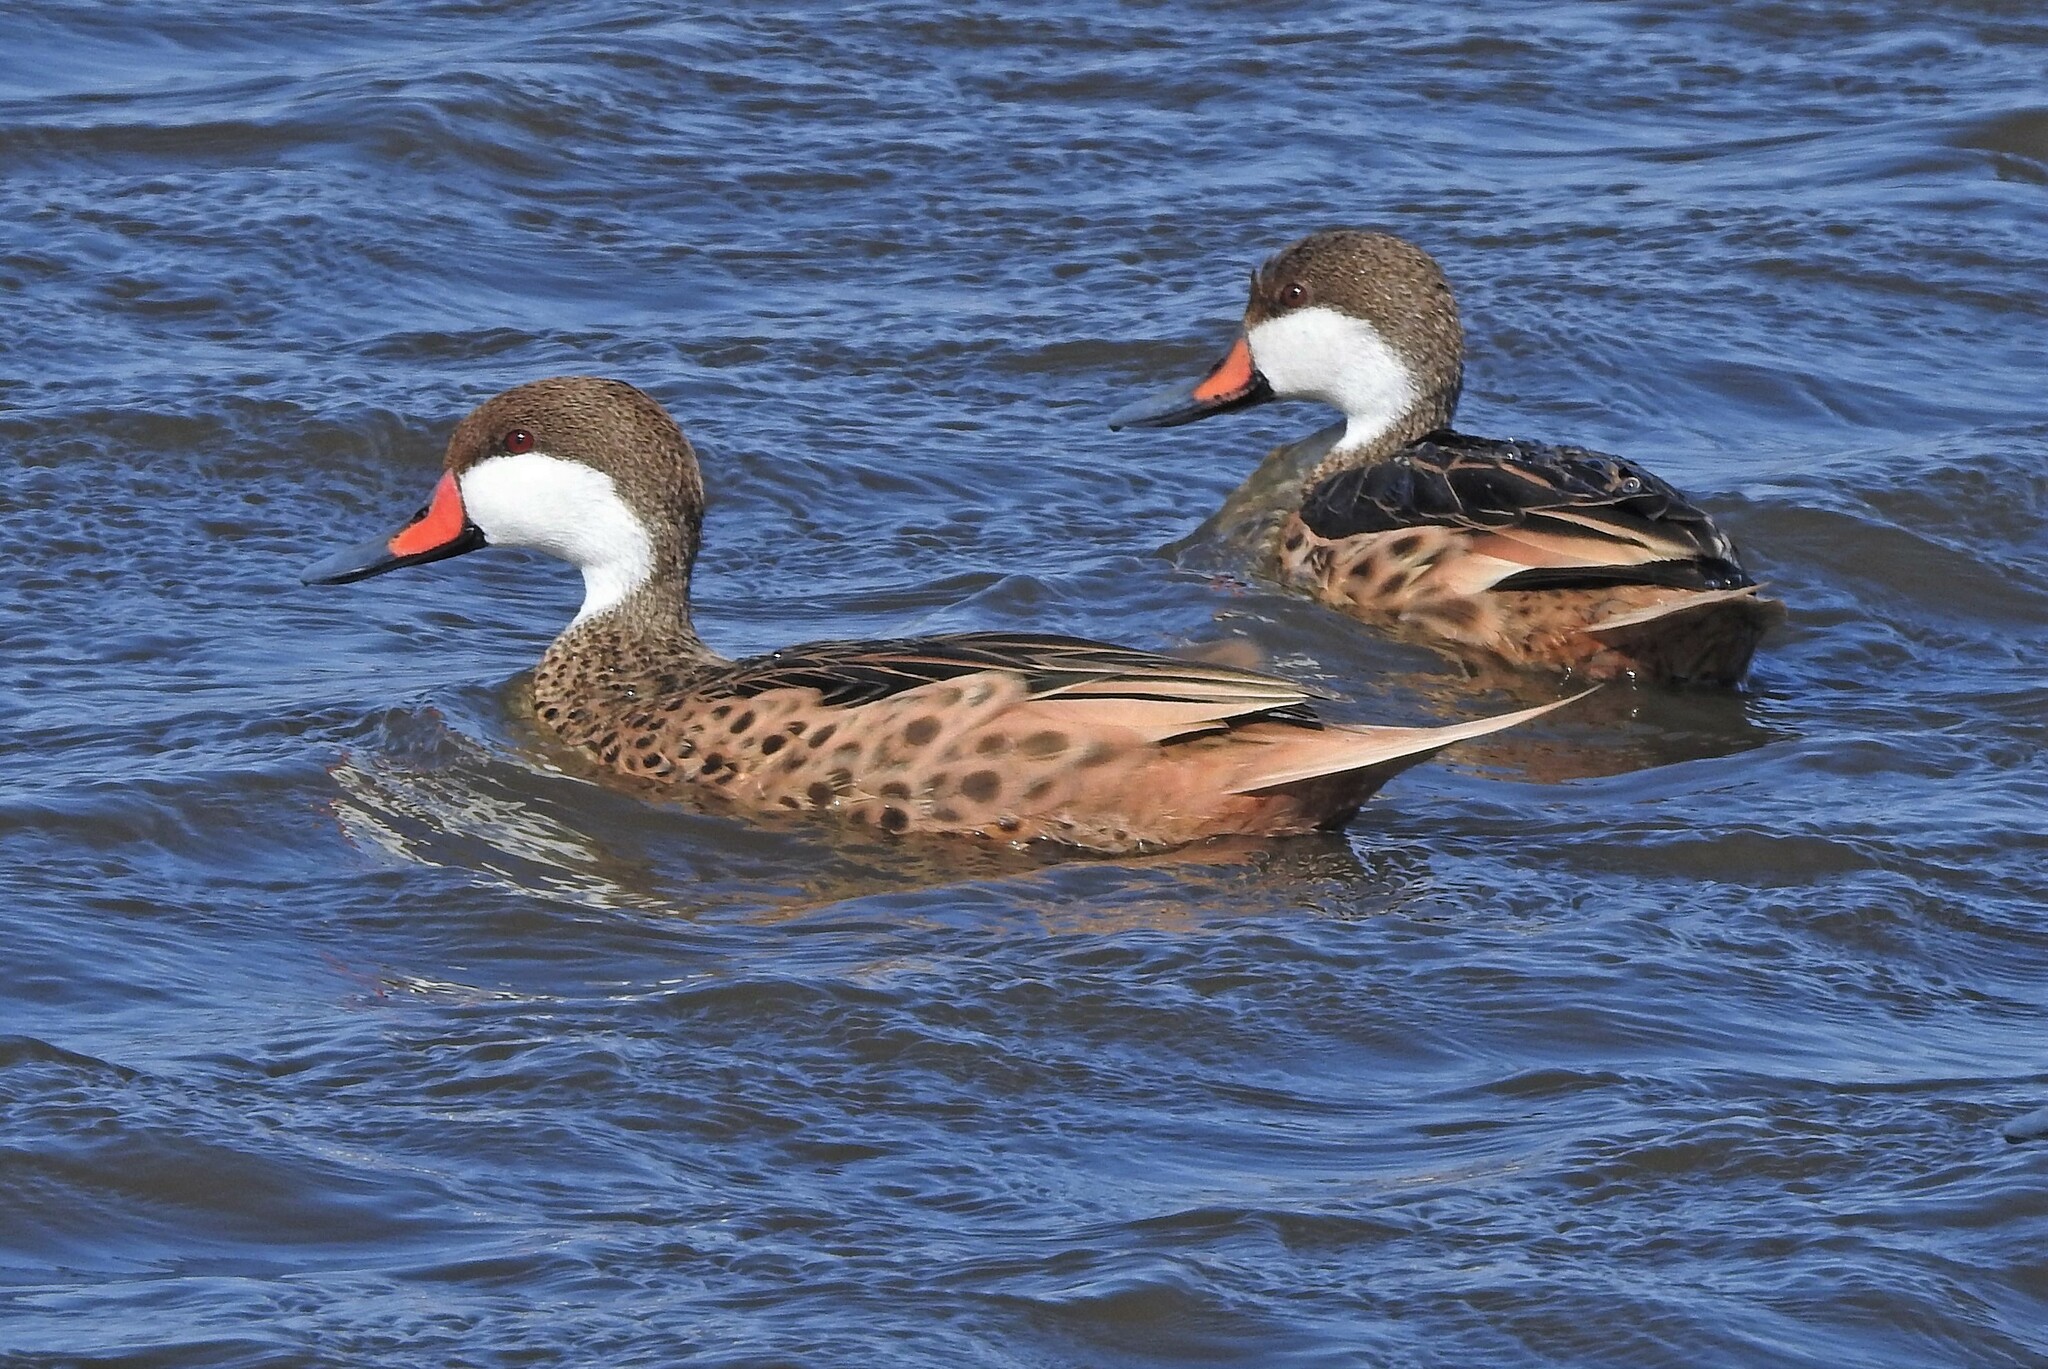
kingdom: Animalia
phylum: Chordata
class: Aves
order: Anseriformes
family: Anatidae
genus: Anas
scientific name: Anas bahamensis
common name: White-cheeked pintail
